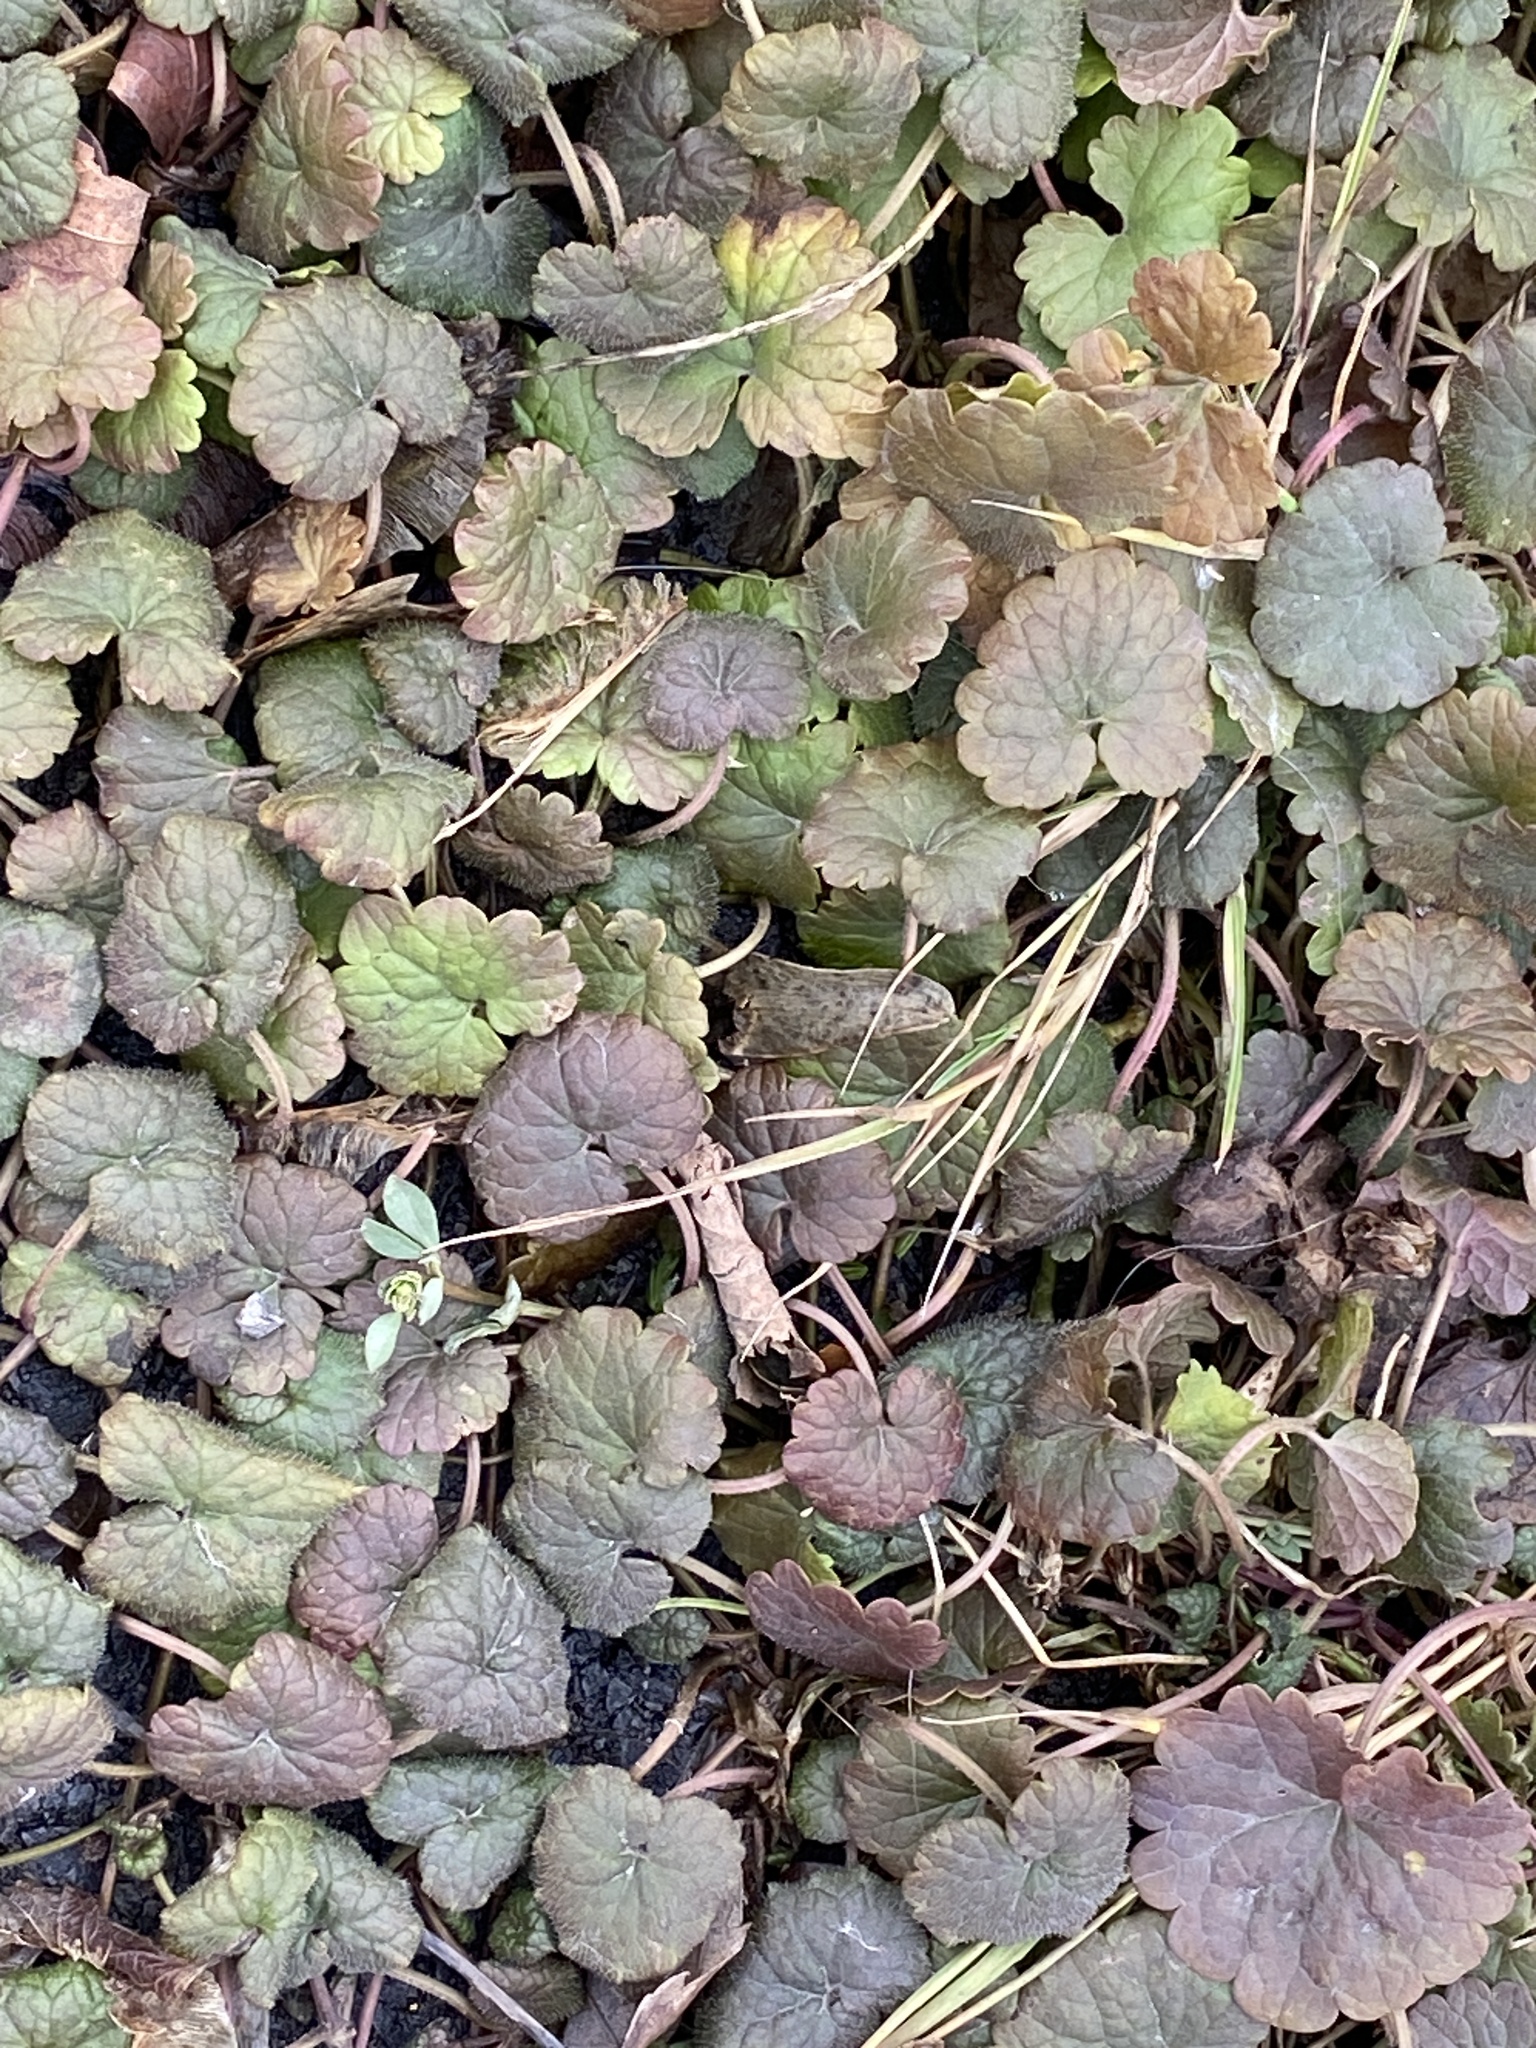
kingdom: Plantae
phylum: Tracheophyta
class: Magnoliopsida
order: Lamiales
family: Lamiaceae
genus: Glechoma
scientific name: Glechoma hederacea
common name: Ground ivy
